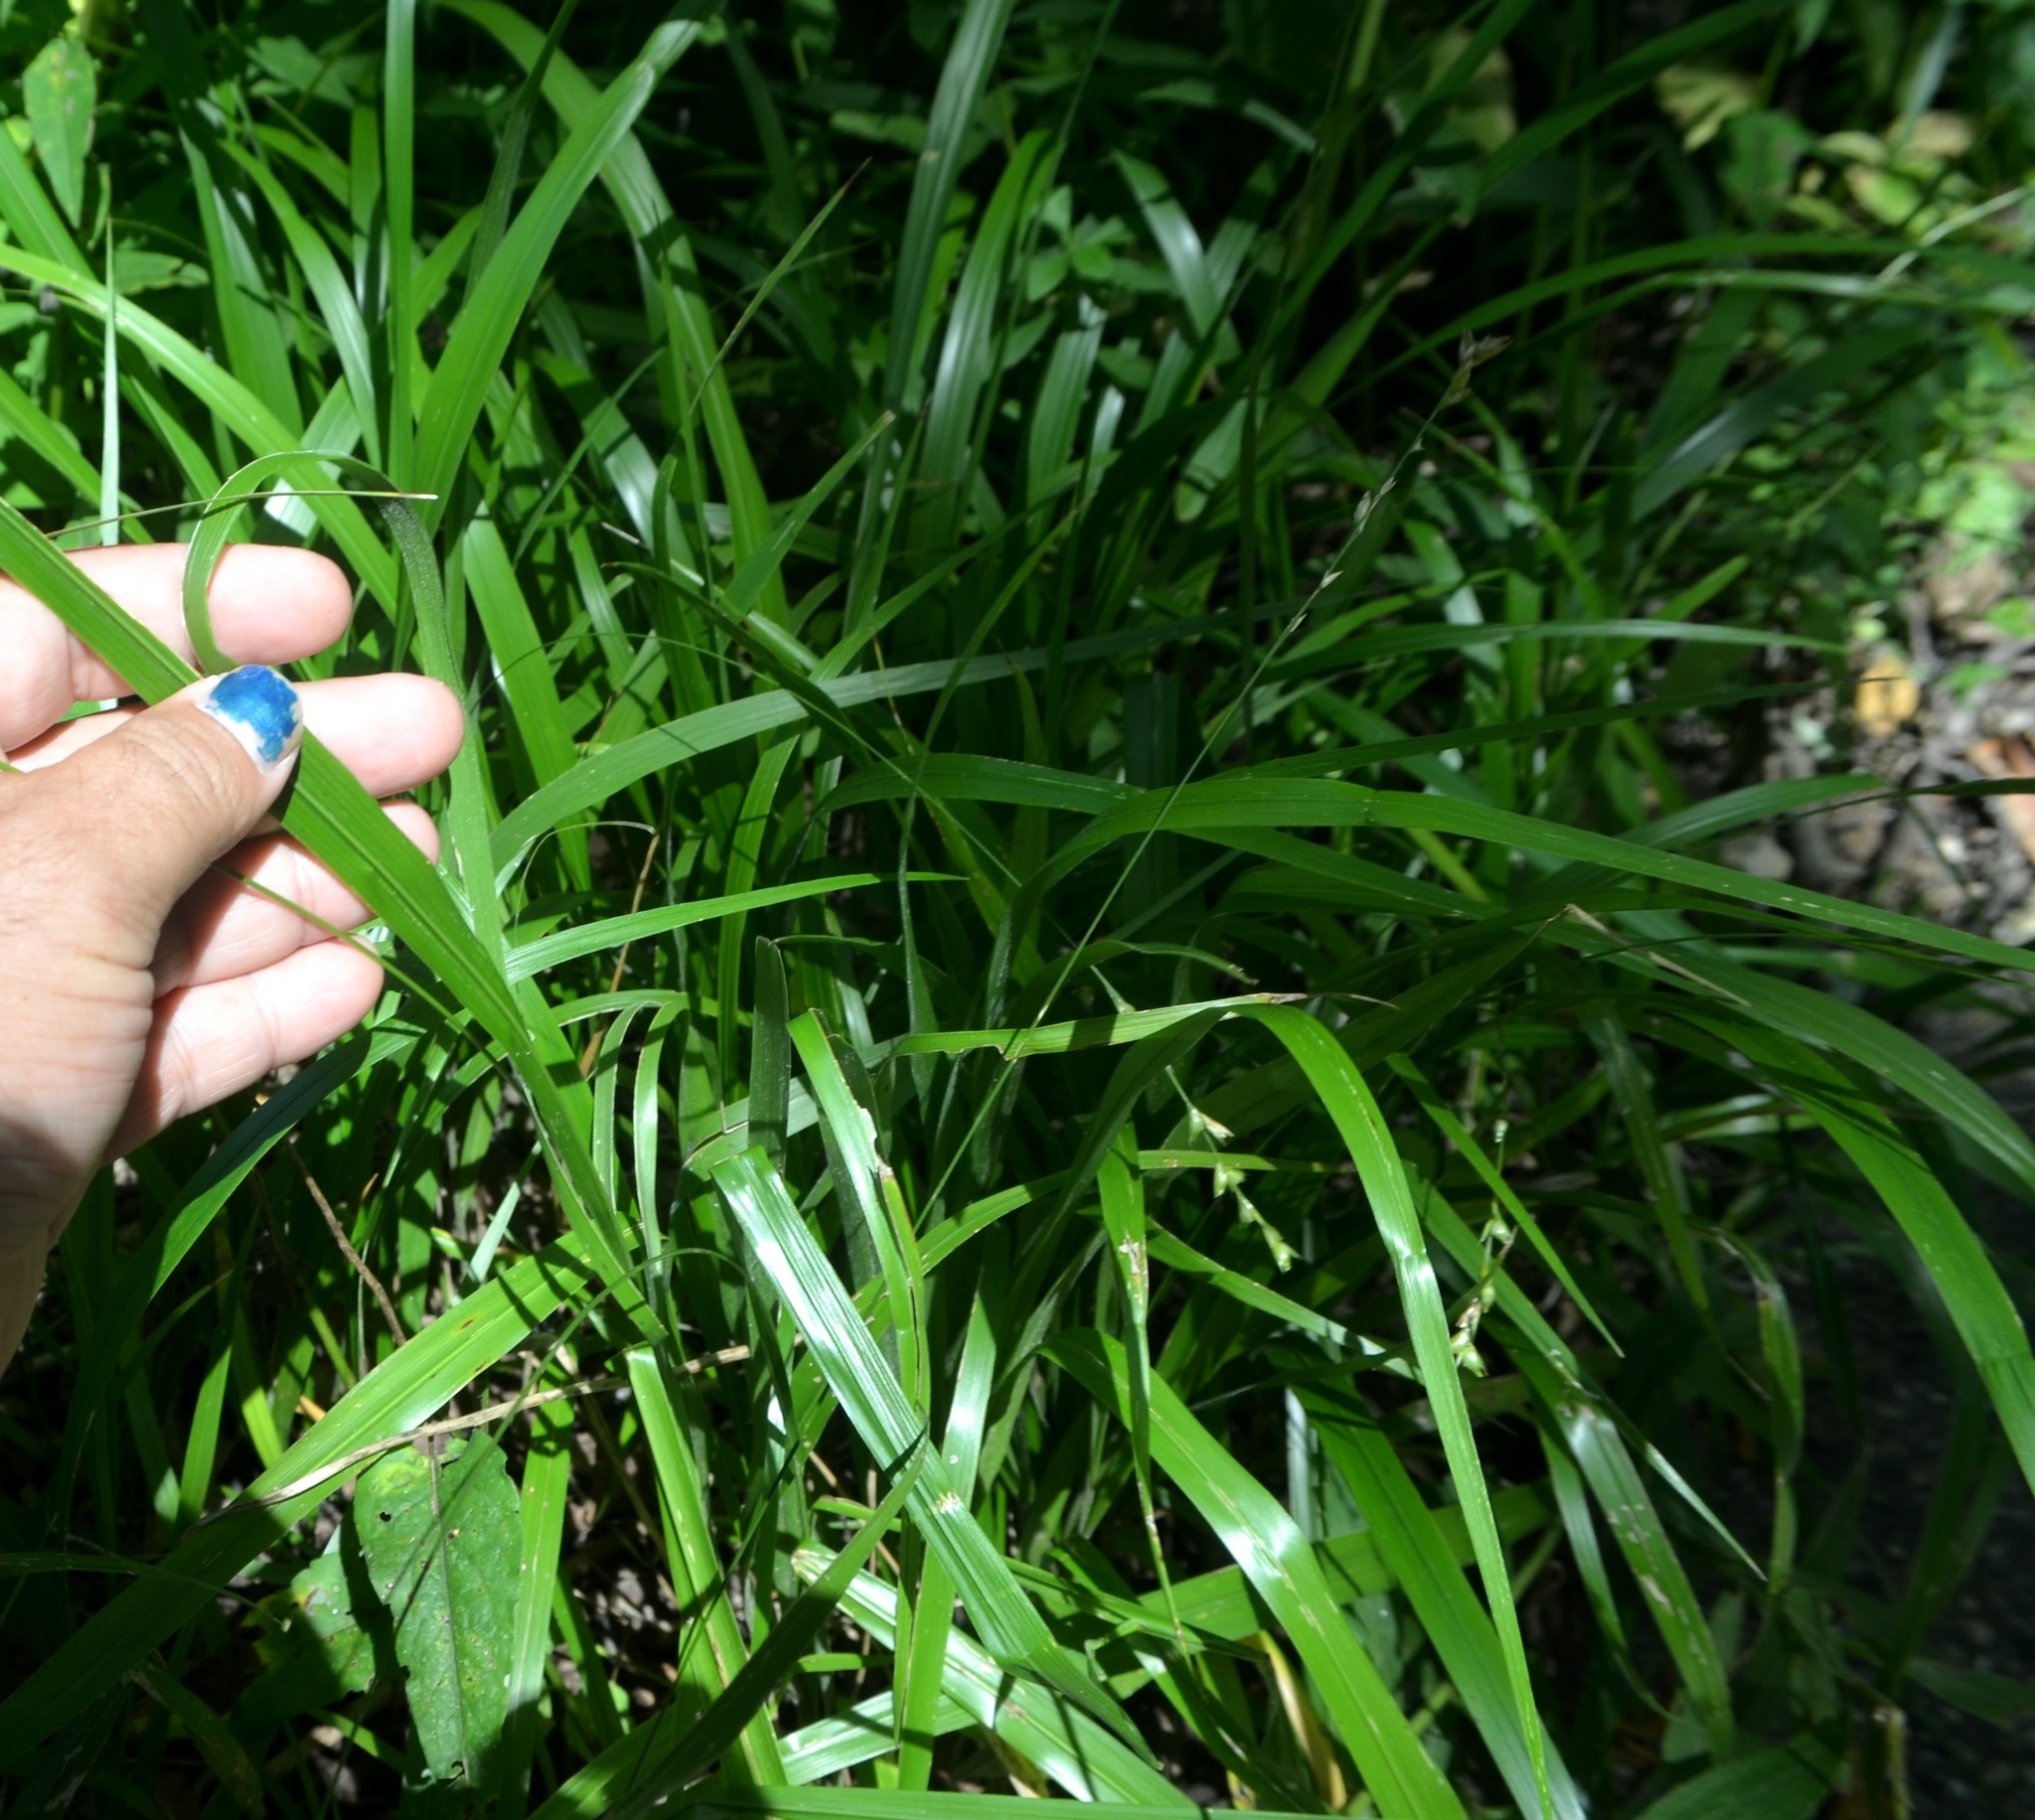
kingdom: Plantae
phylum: Tracheophyta
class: Liliopsida
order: Poales
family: Poaceae
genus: Diarrhena
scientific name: Diarrhena obovata
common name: Beakgrass
